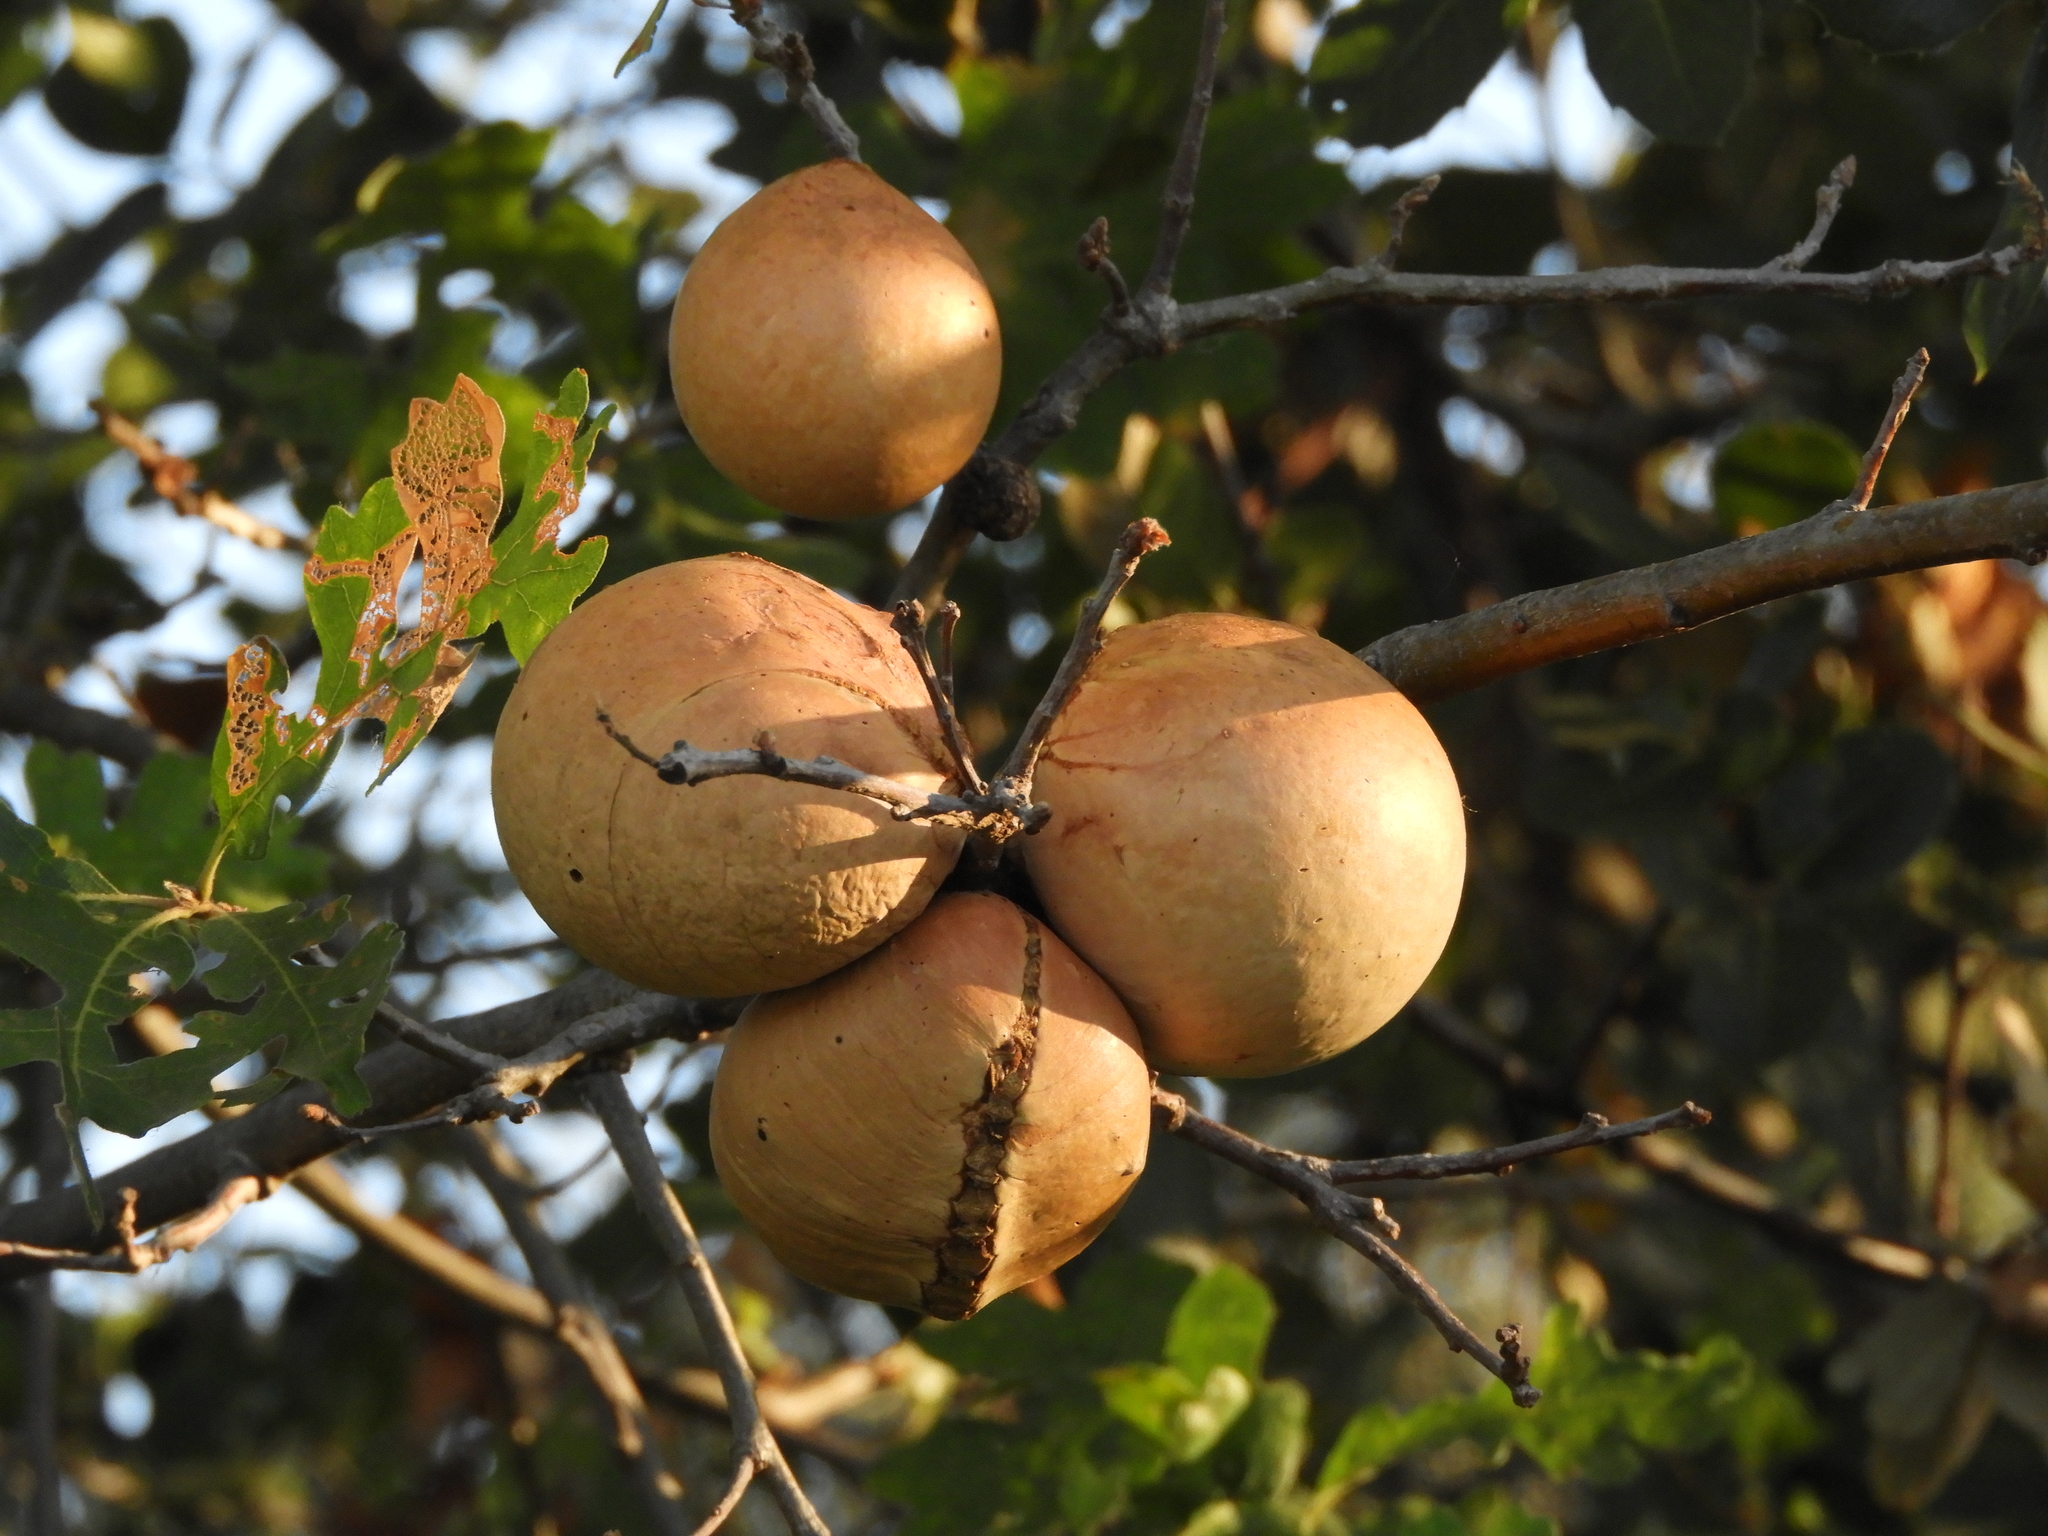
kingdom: Animalia
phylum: Arthropoda
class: Insecta
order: Hymenoptera
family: Cynipidae
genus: Andricus
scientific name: Andricus quercuscalifornicus
